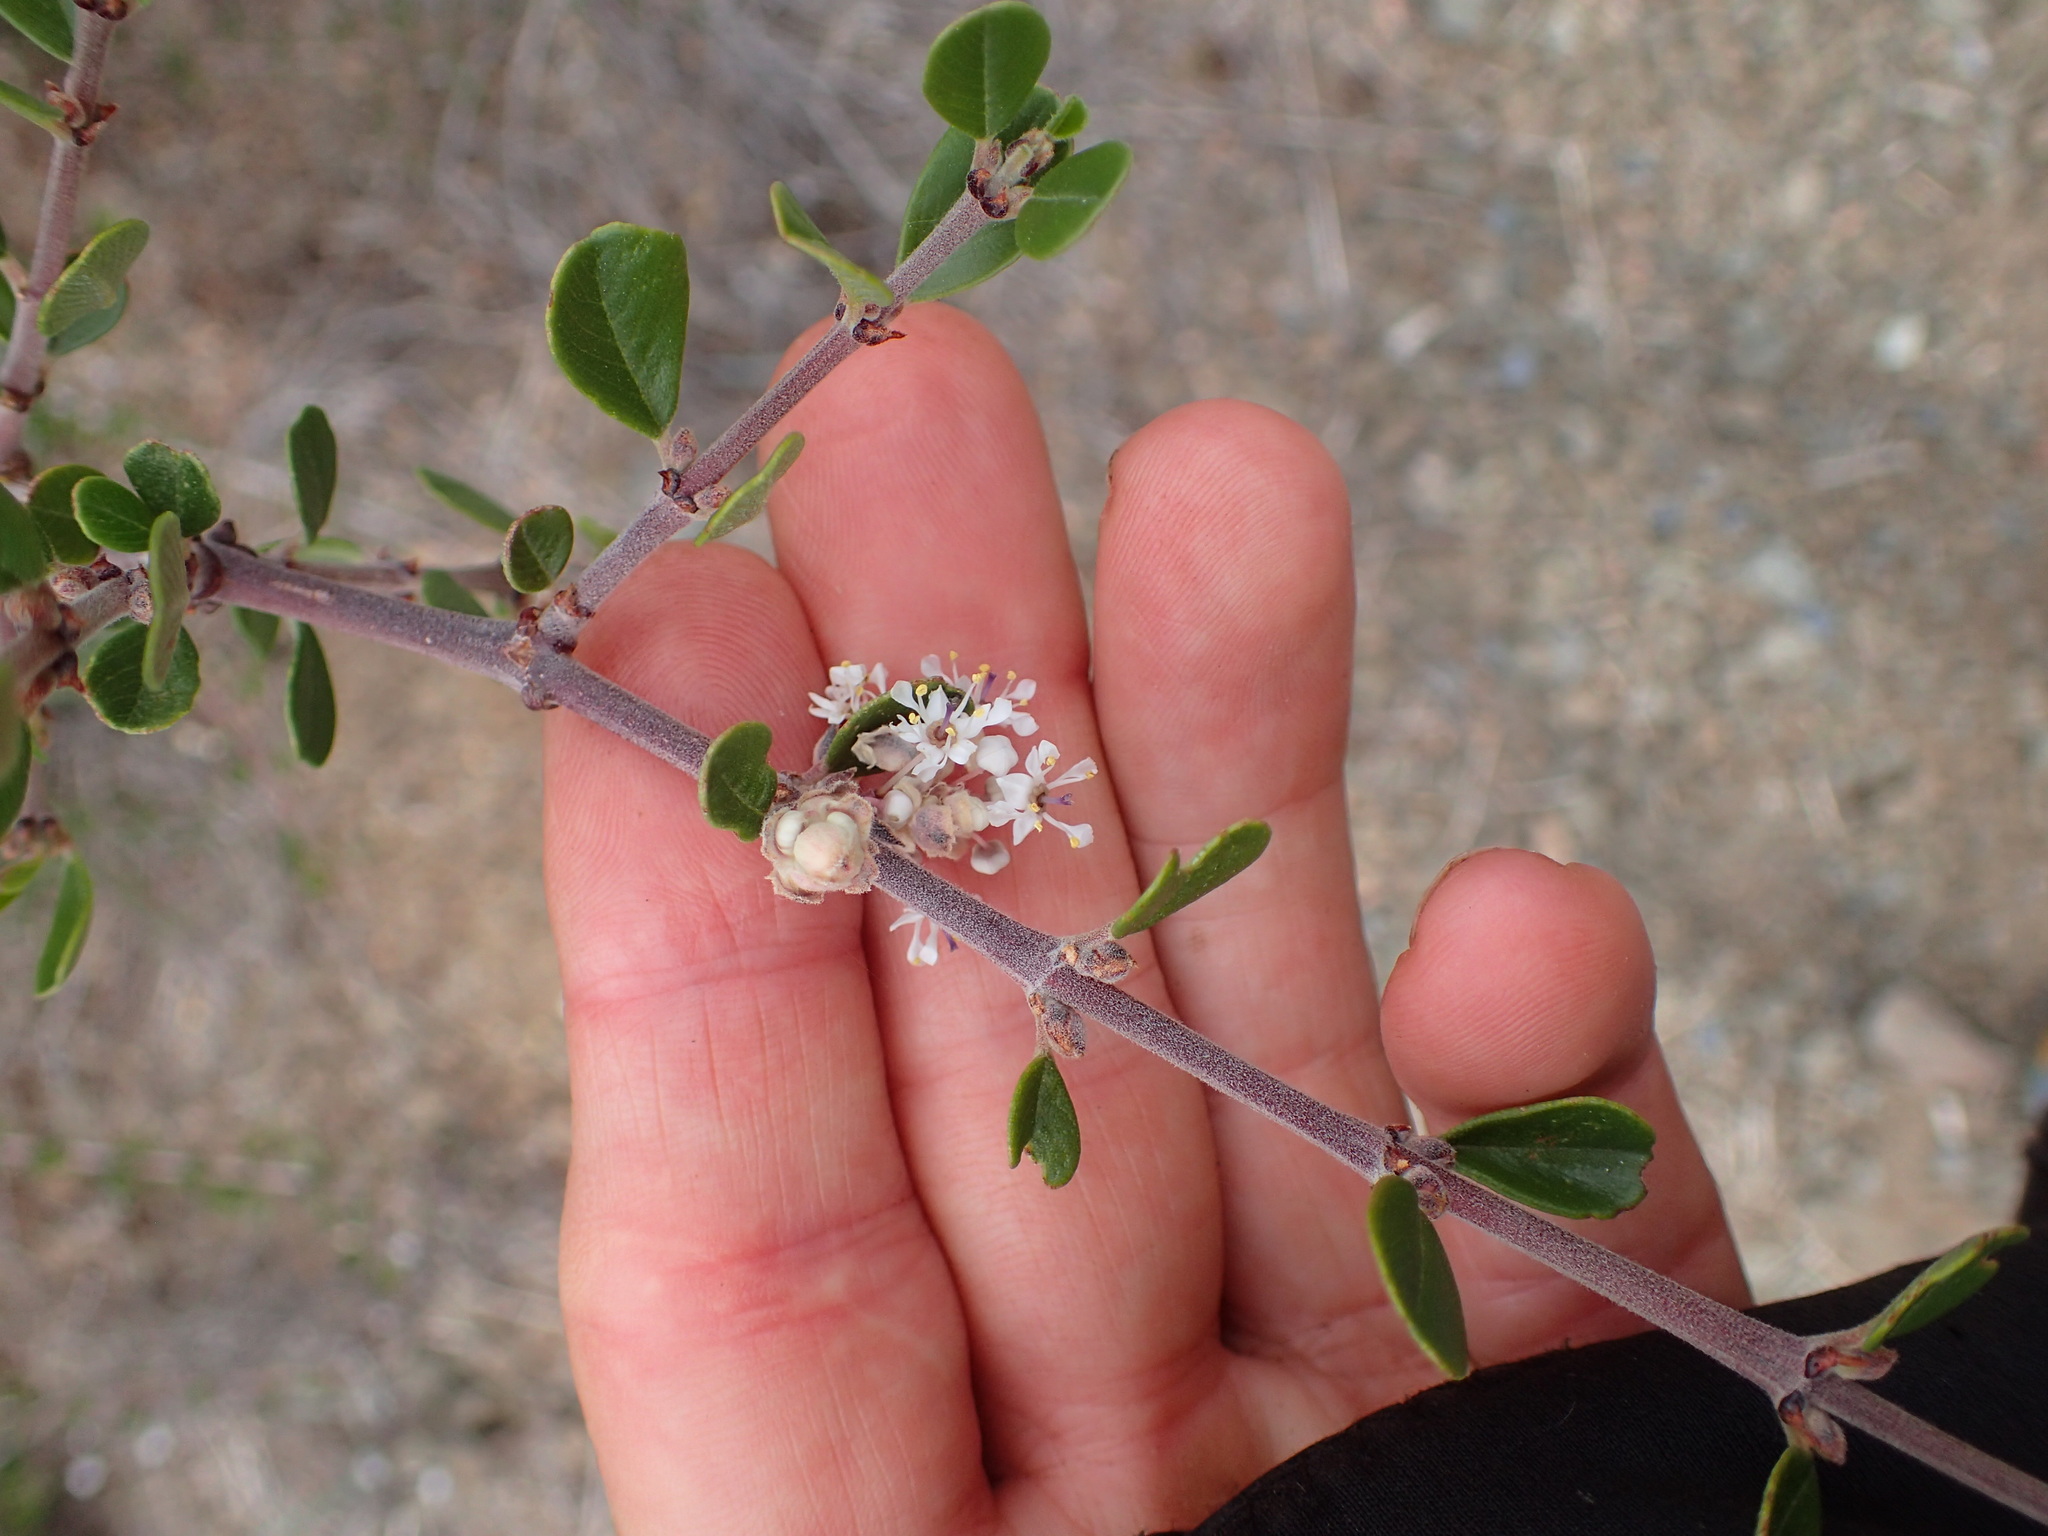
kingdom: Plantae
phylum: Tracheophyta
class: Magnoliopsida
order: Rosales
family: Rhamnaceae
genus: Ceanothus
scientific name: Ceanothus cuneatus
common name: Cuneate ceanothus
